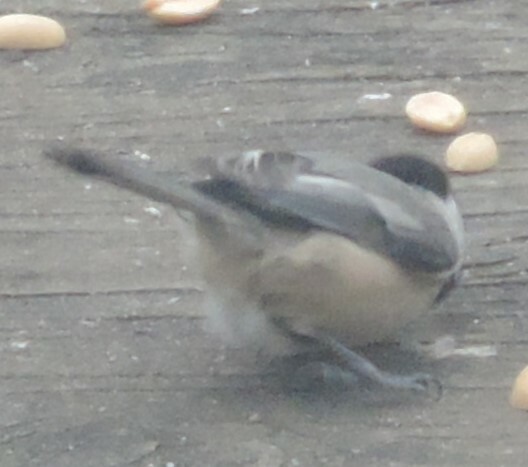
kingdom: Animalia
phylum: Chordata
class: Aves
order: Passeriformes
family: Paridae
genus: Poecile
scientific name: Poecile atricapillus
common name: Black-capped chickadee
